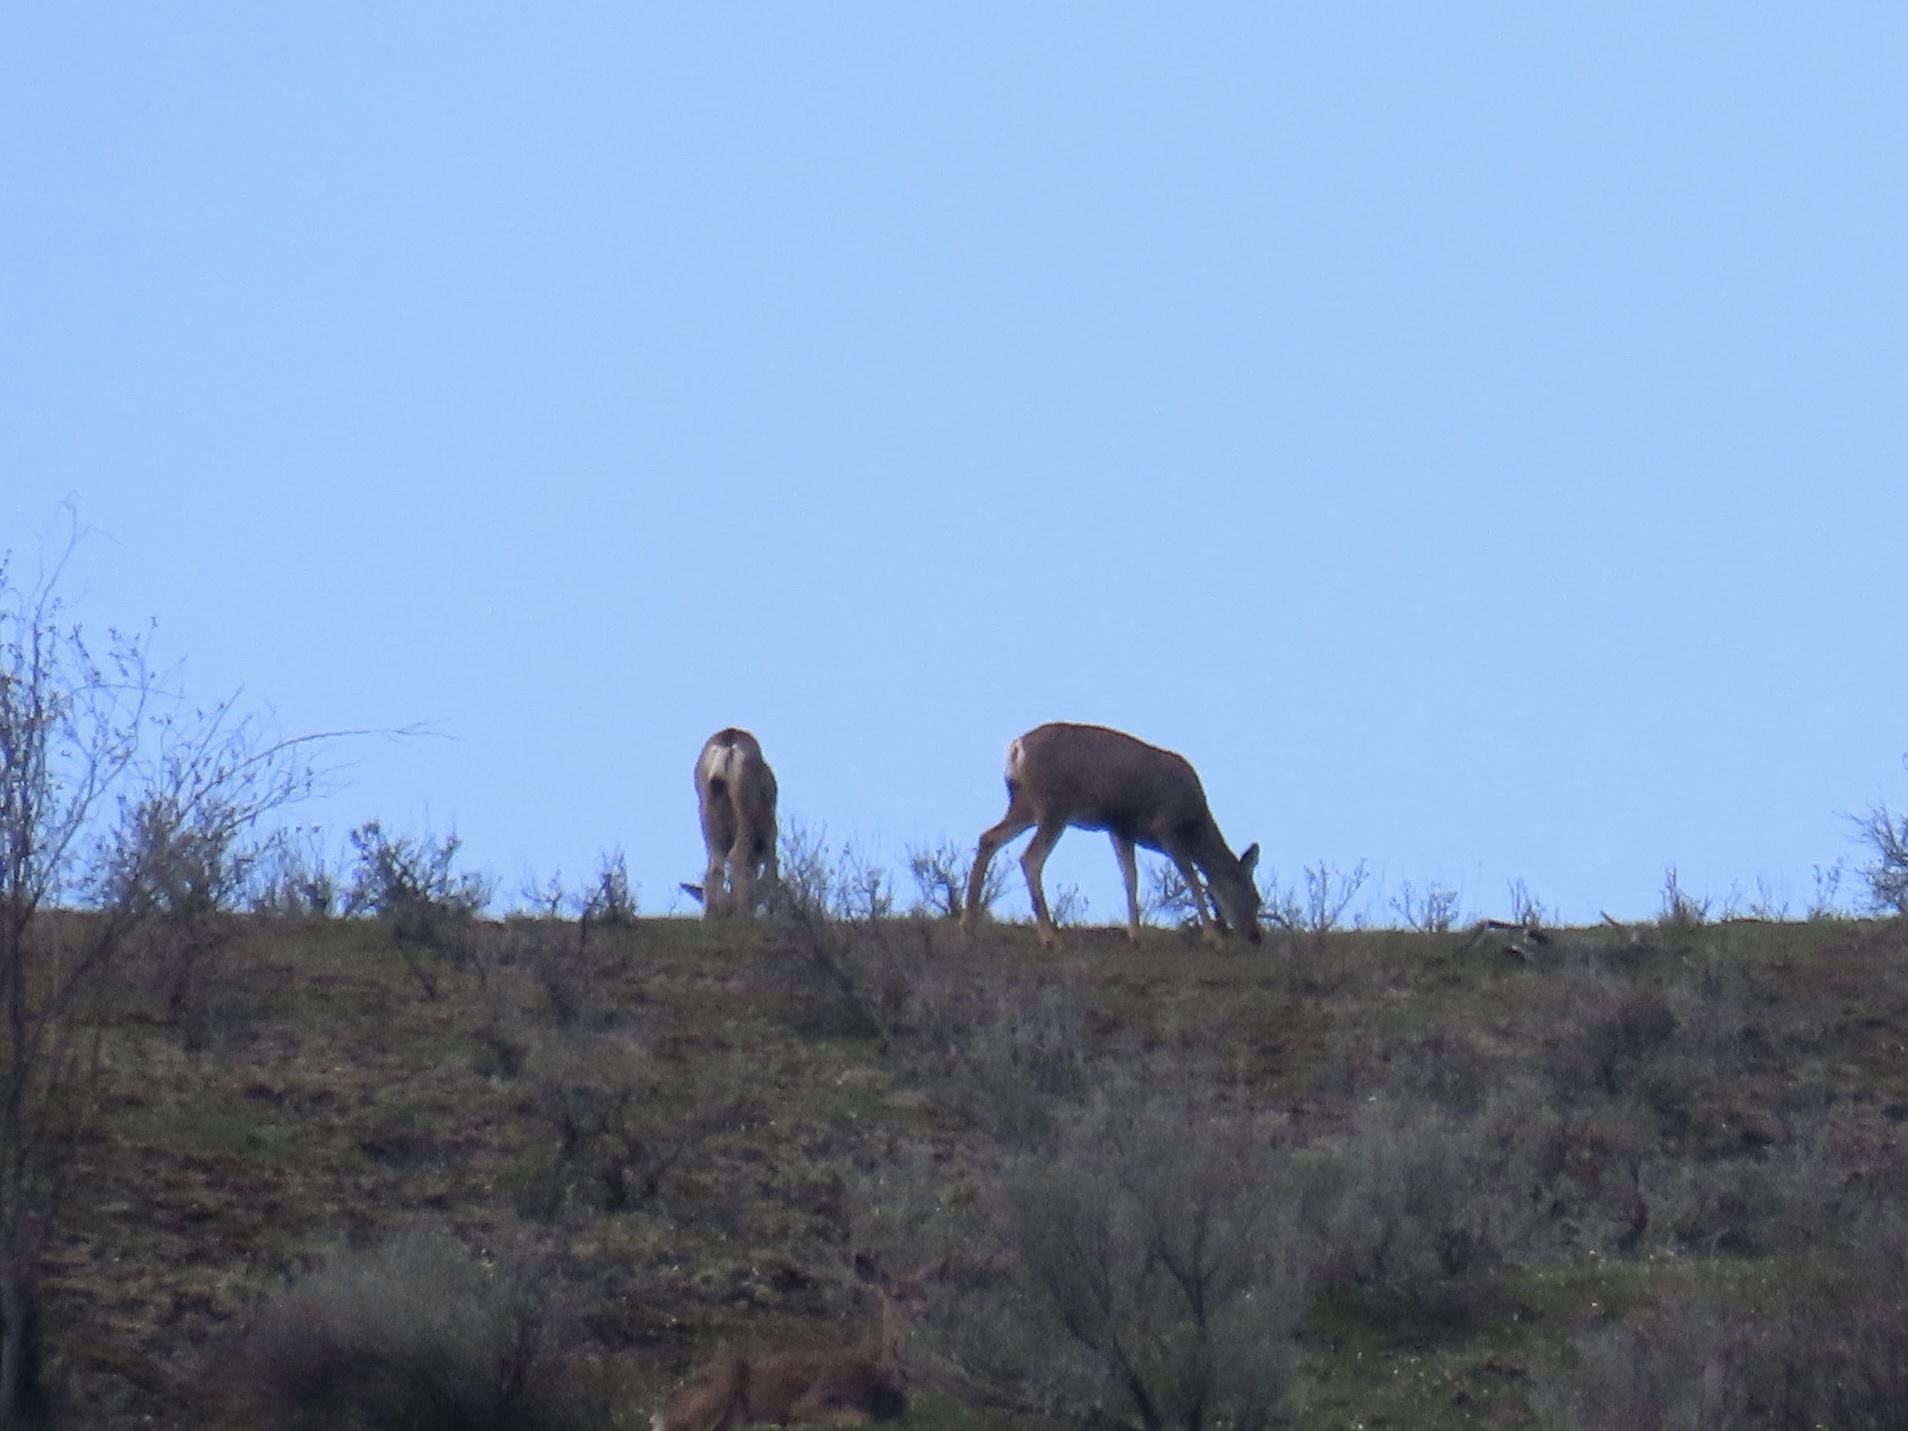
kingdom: Animalia
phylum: Chordata
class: Mammalia
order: Artiodactyla
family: Cervidae
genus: Odocoileus
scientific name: Odocoileus hemionus
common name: Mule deer
